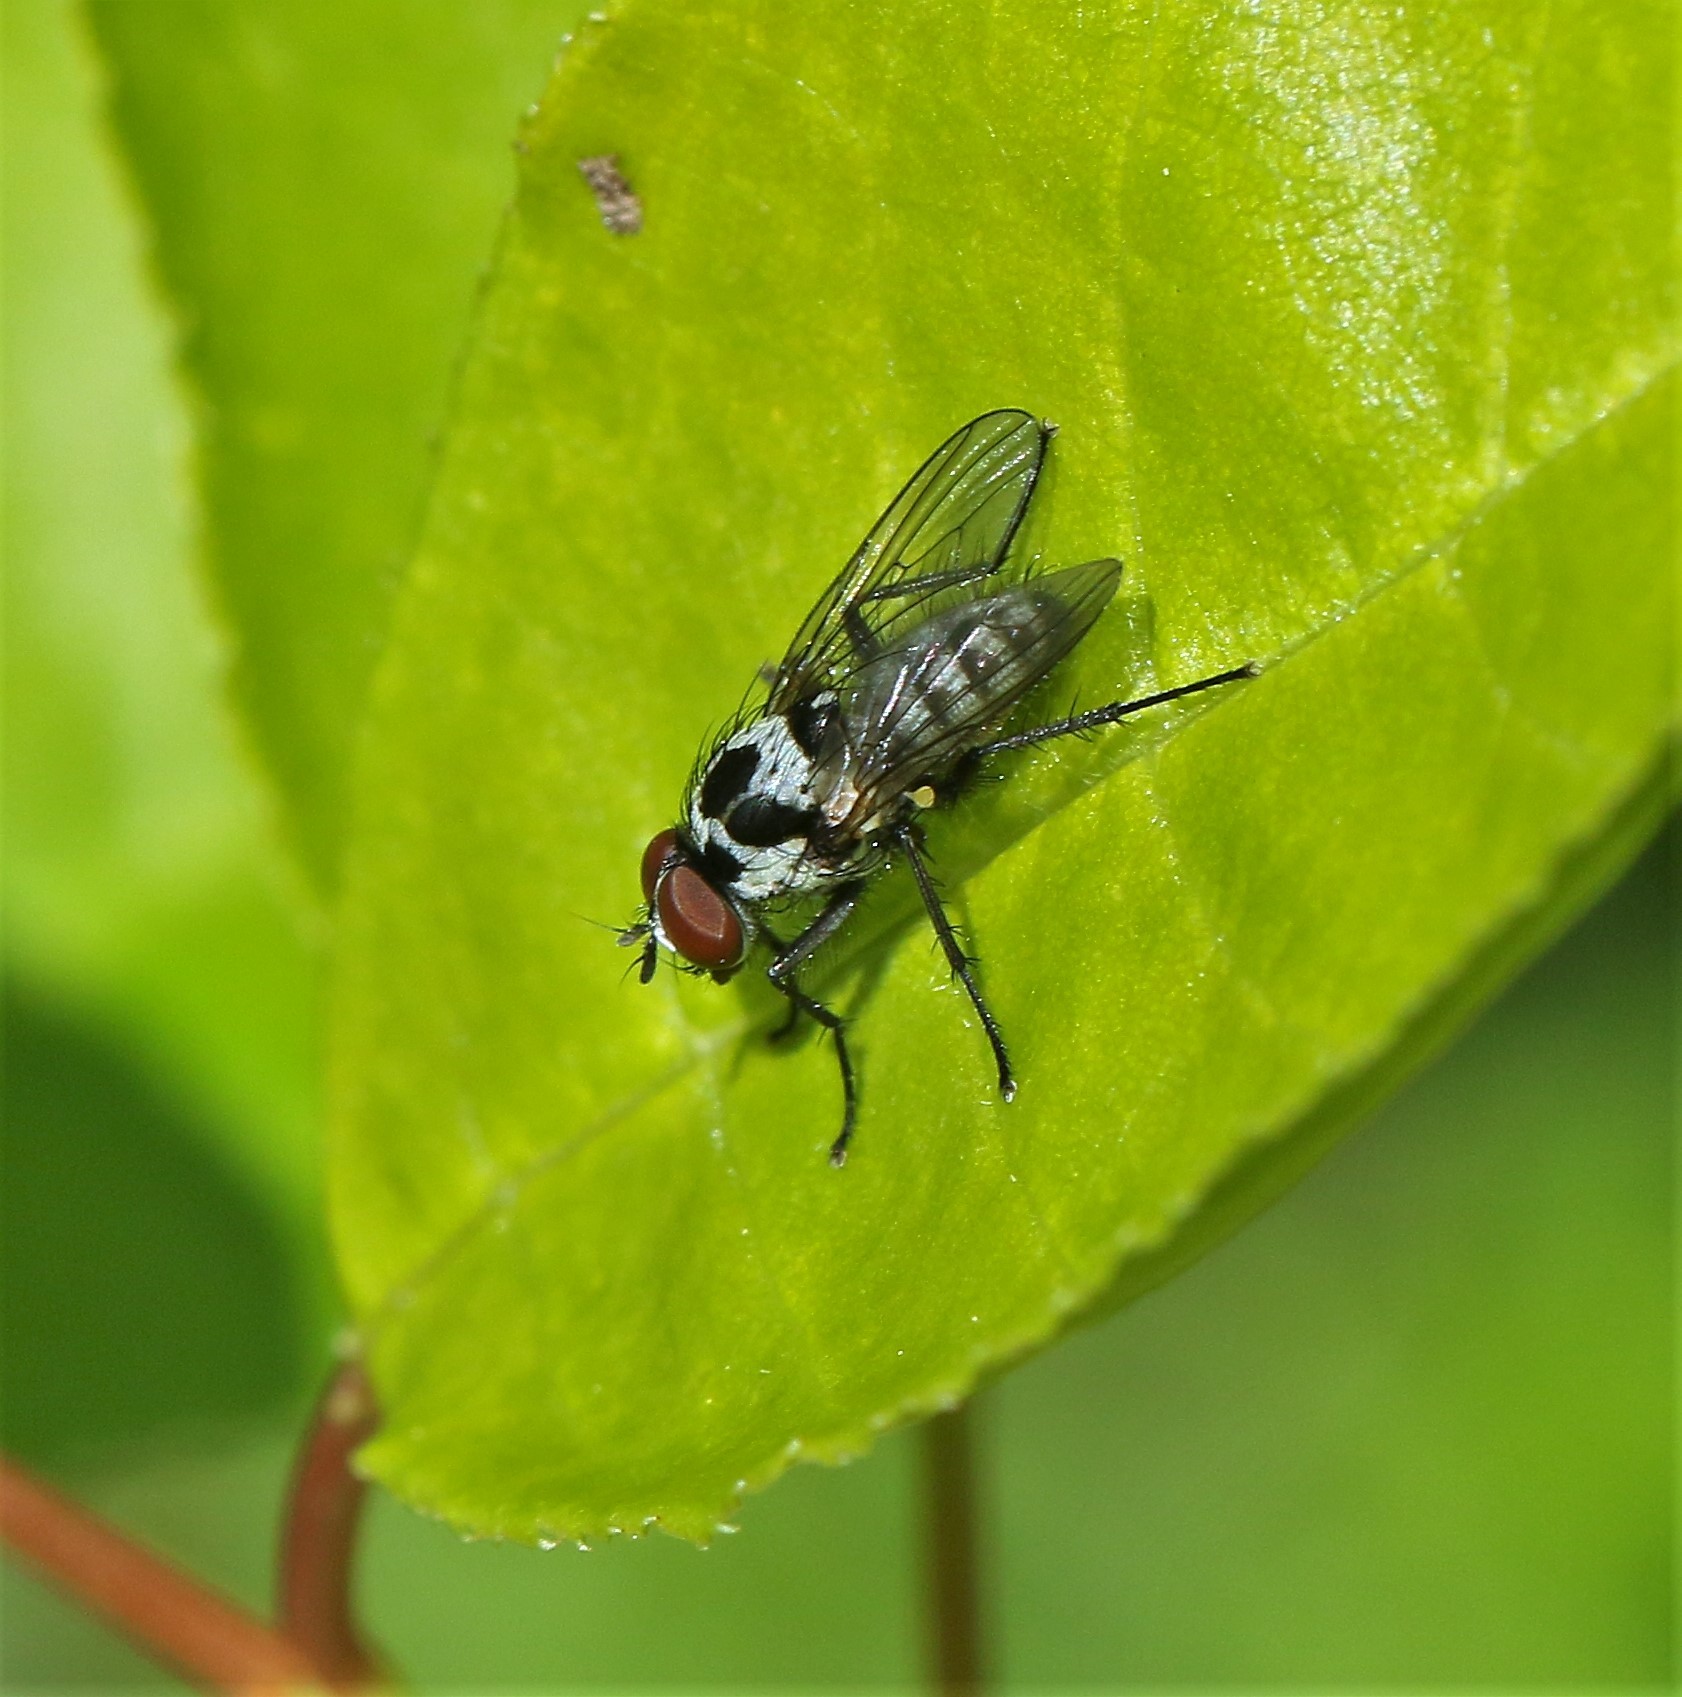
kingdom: Animalia
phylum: Arthropoda
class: Insecta
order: Diptera
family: Anthomyiidae
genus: Anthomyia
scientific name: Anthomyia procellaris
